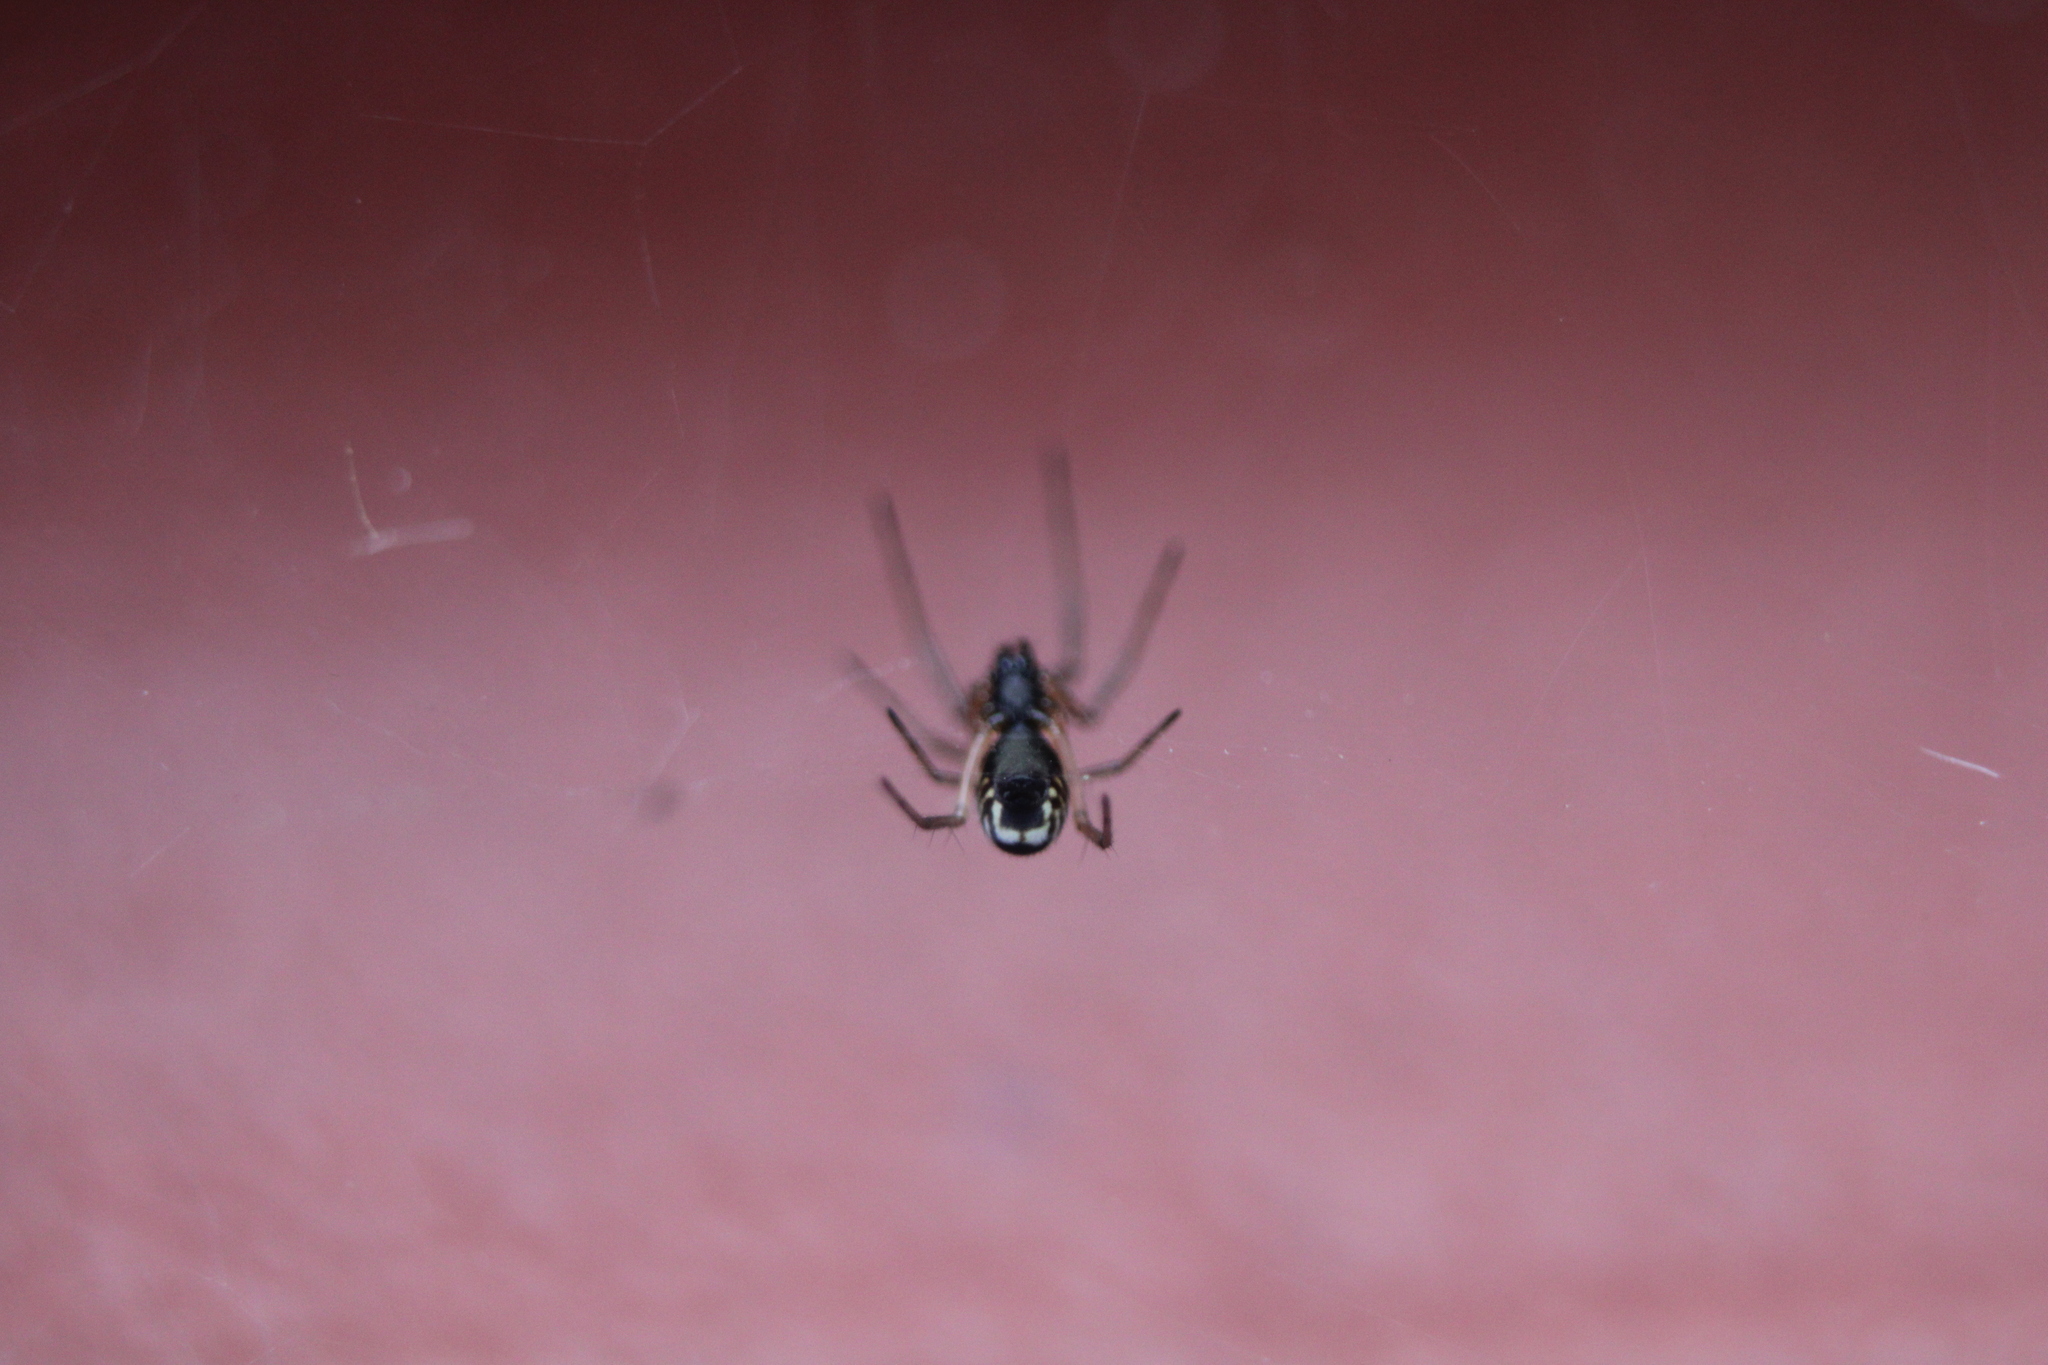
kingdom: Animalia
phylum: Arthropoda
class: Arachnida
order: Araneae
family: Linyphiidae
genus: Frontinella
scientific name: Frontinella pyramitela
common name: Bowl-and-doily spider
